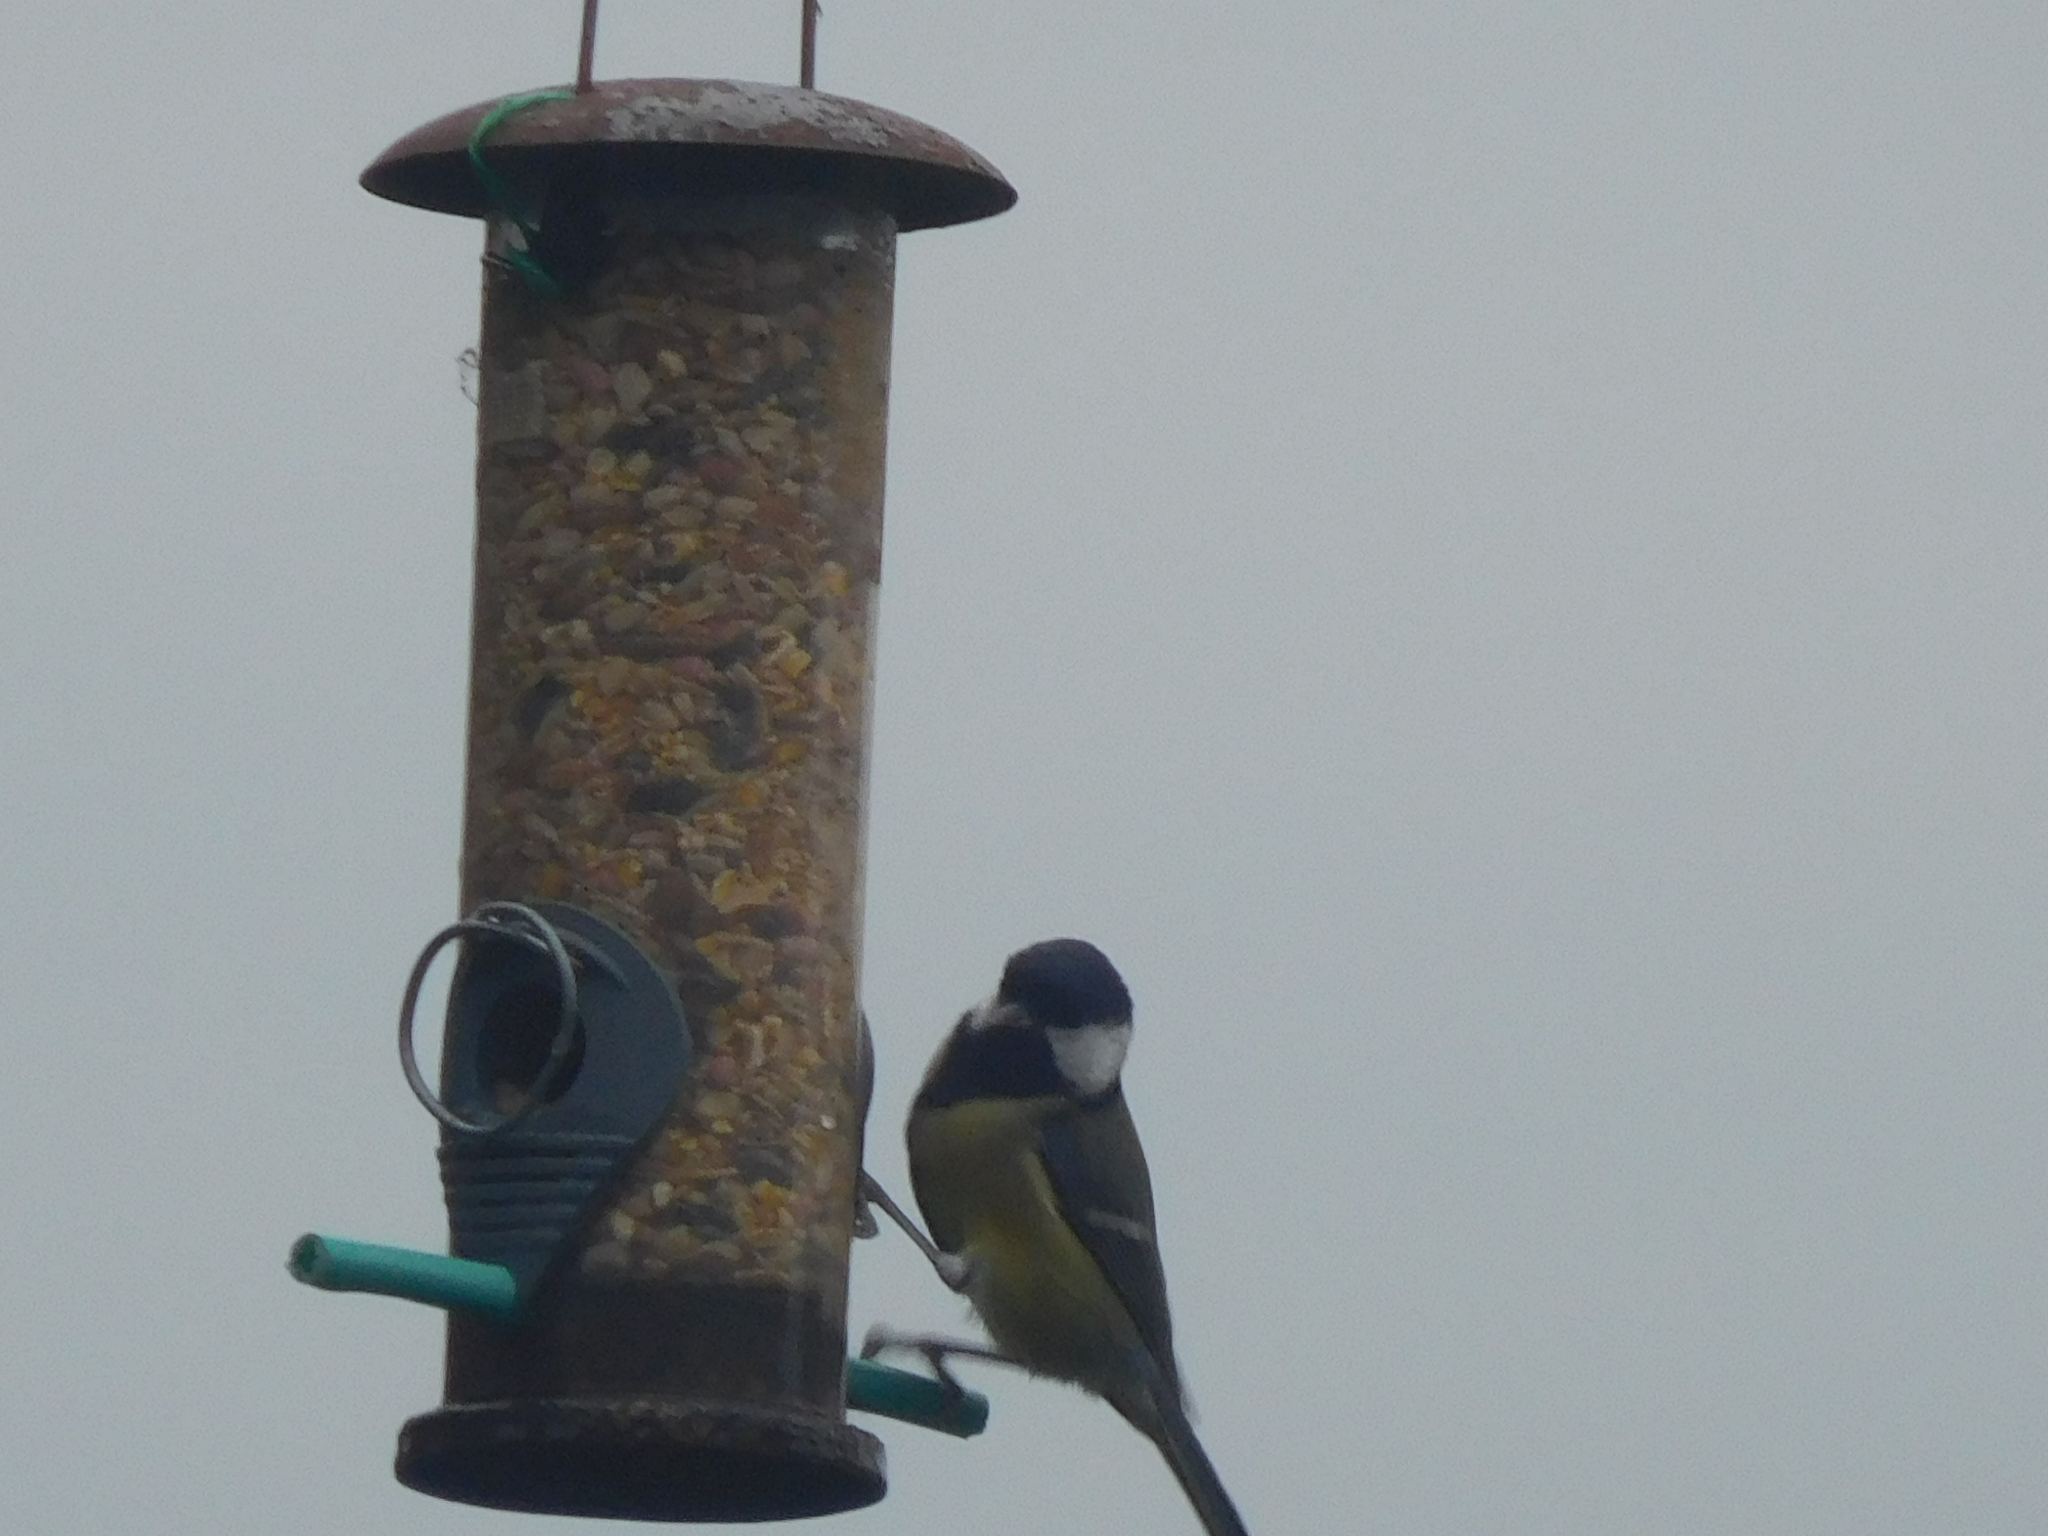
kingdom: Animalia
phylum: Chordata
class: Aves
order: Passeriformes
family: Paridae
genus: Parus
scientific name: Parus major
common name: Great tit
